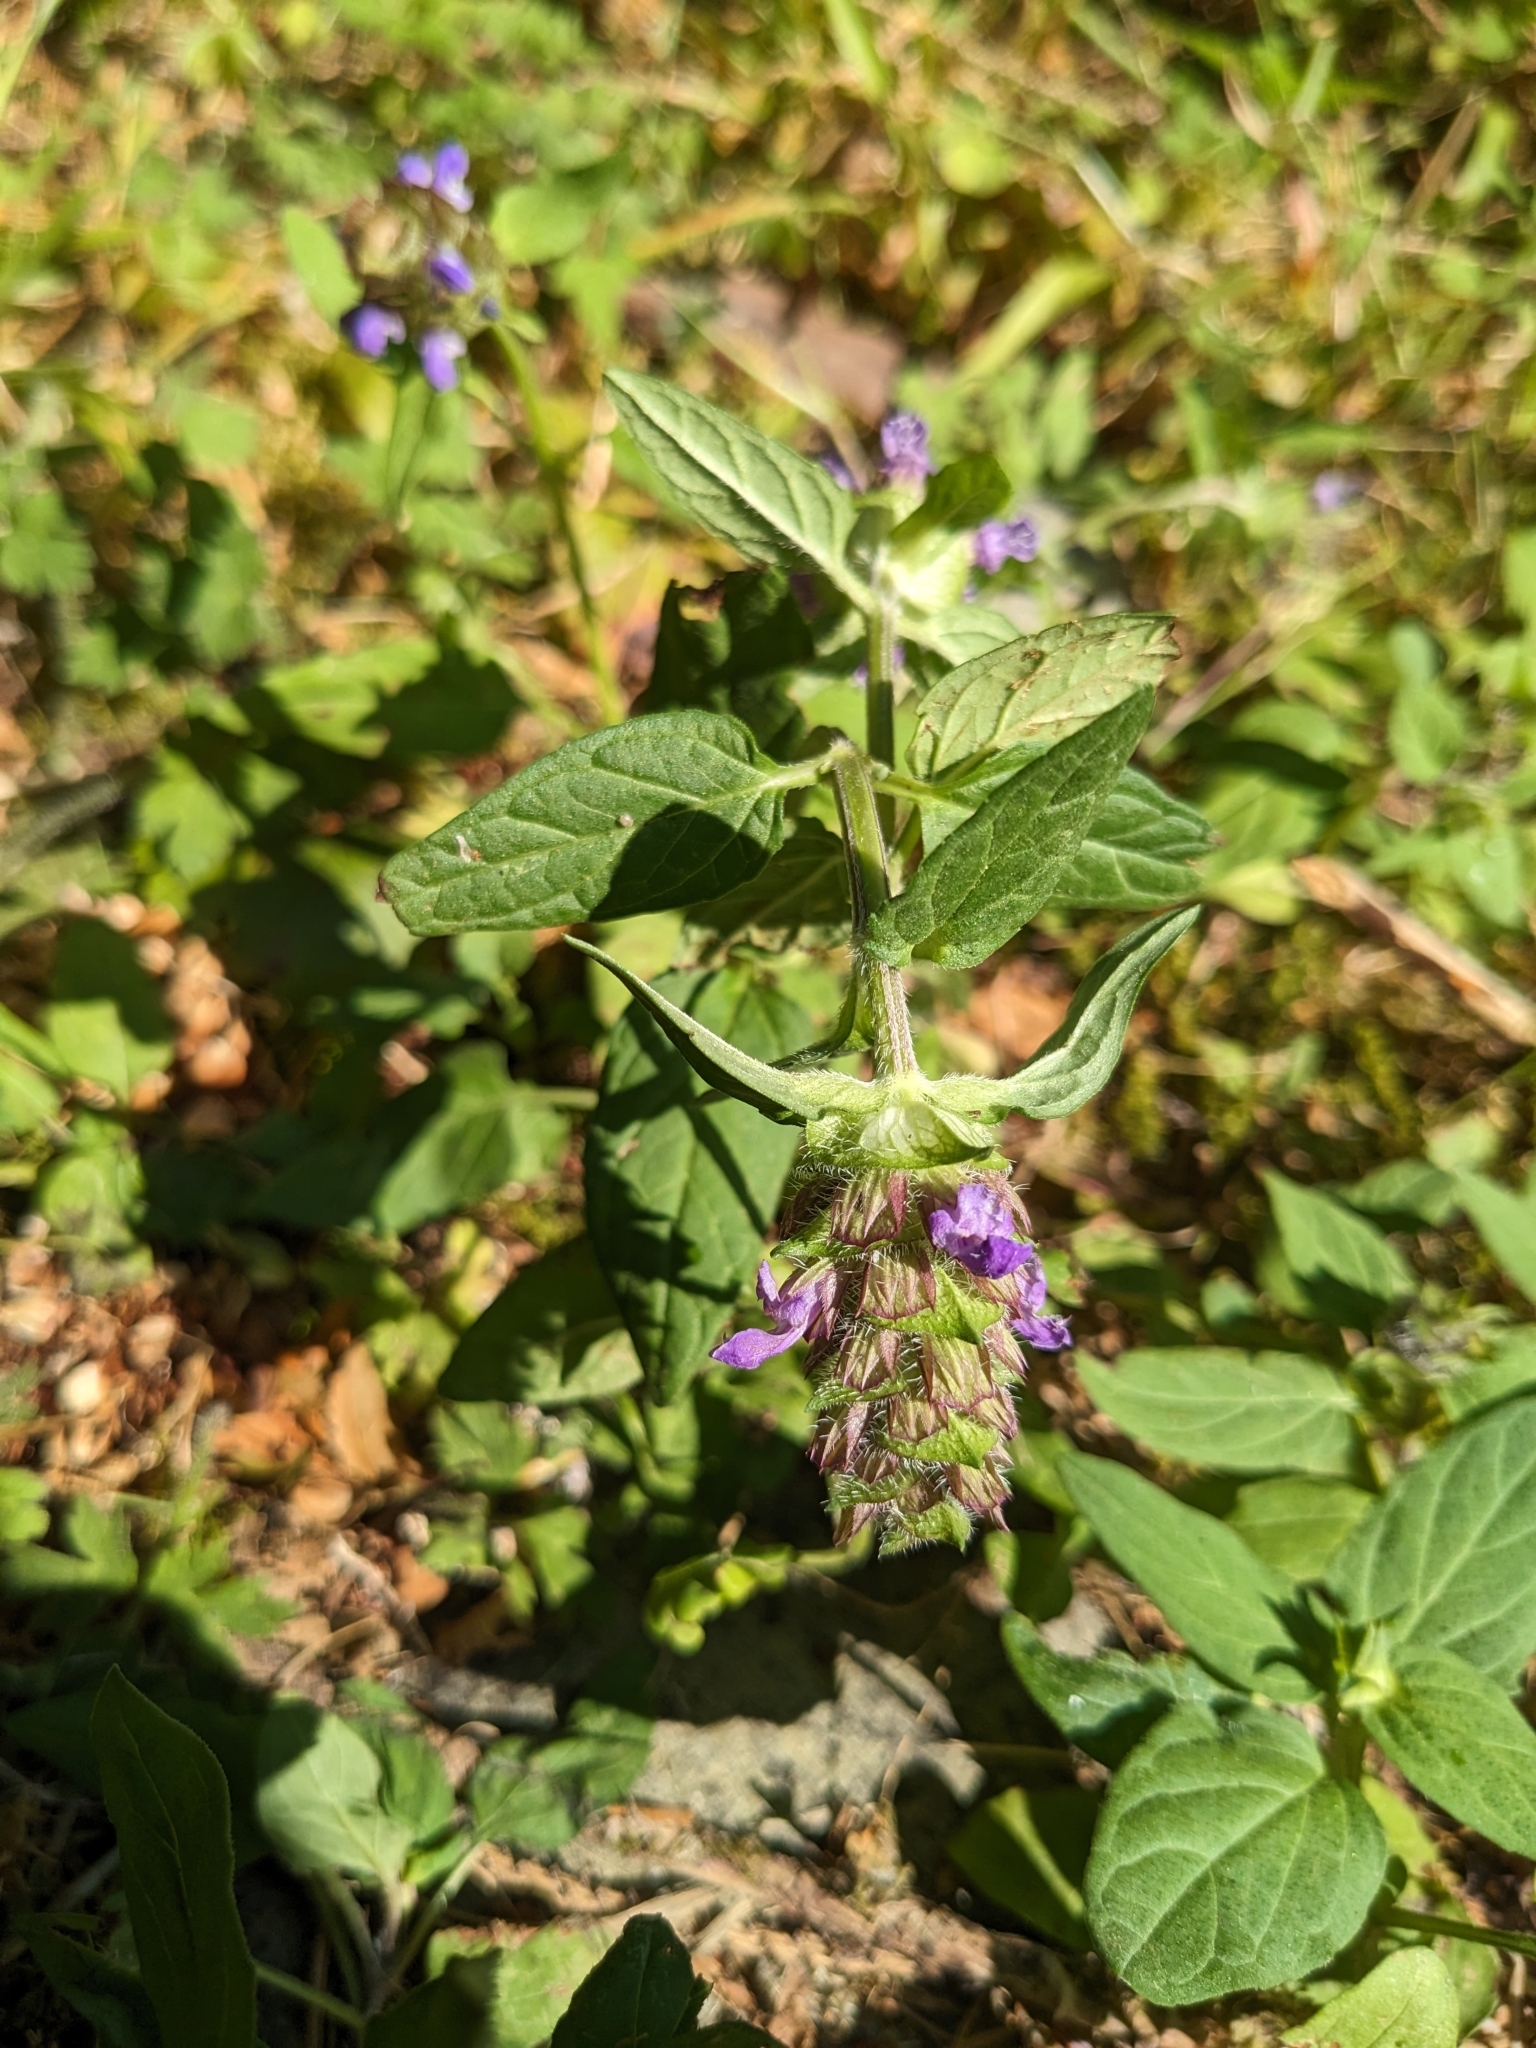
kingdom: Plantae
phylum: Tracheophyta
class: Magnoliopsida
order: Lamiales
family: Lamiaceae
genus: Prunella
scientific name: Prunella vulgaris
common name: Heal-all
